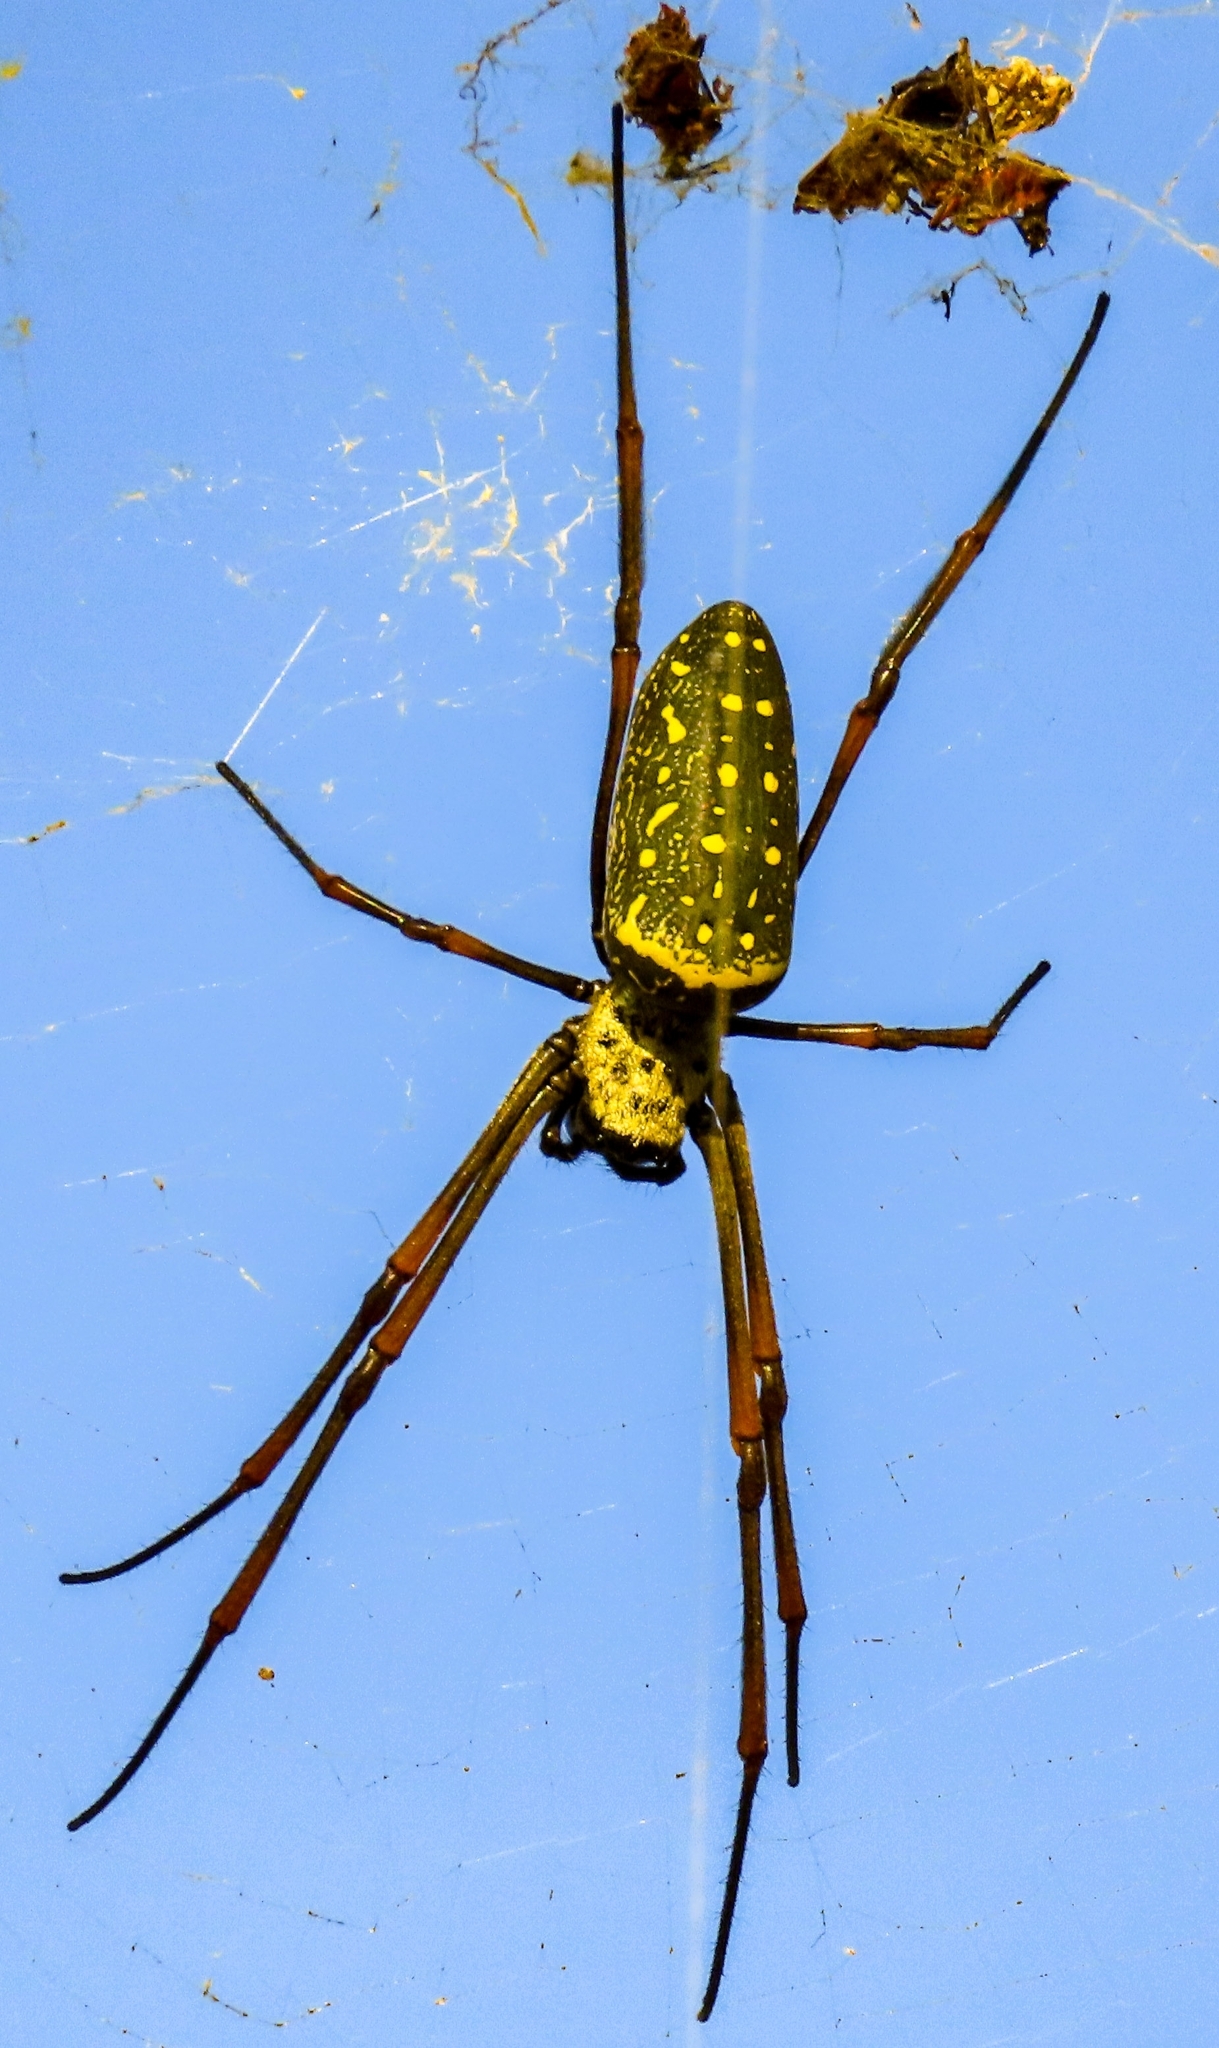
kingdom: Animalia
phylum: Arthropoda
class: Arachnida
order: Araneae
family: Araneidae
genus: Trichonephila
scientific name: Trichonephila antipodiana
